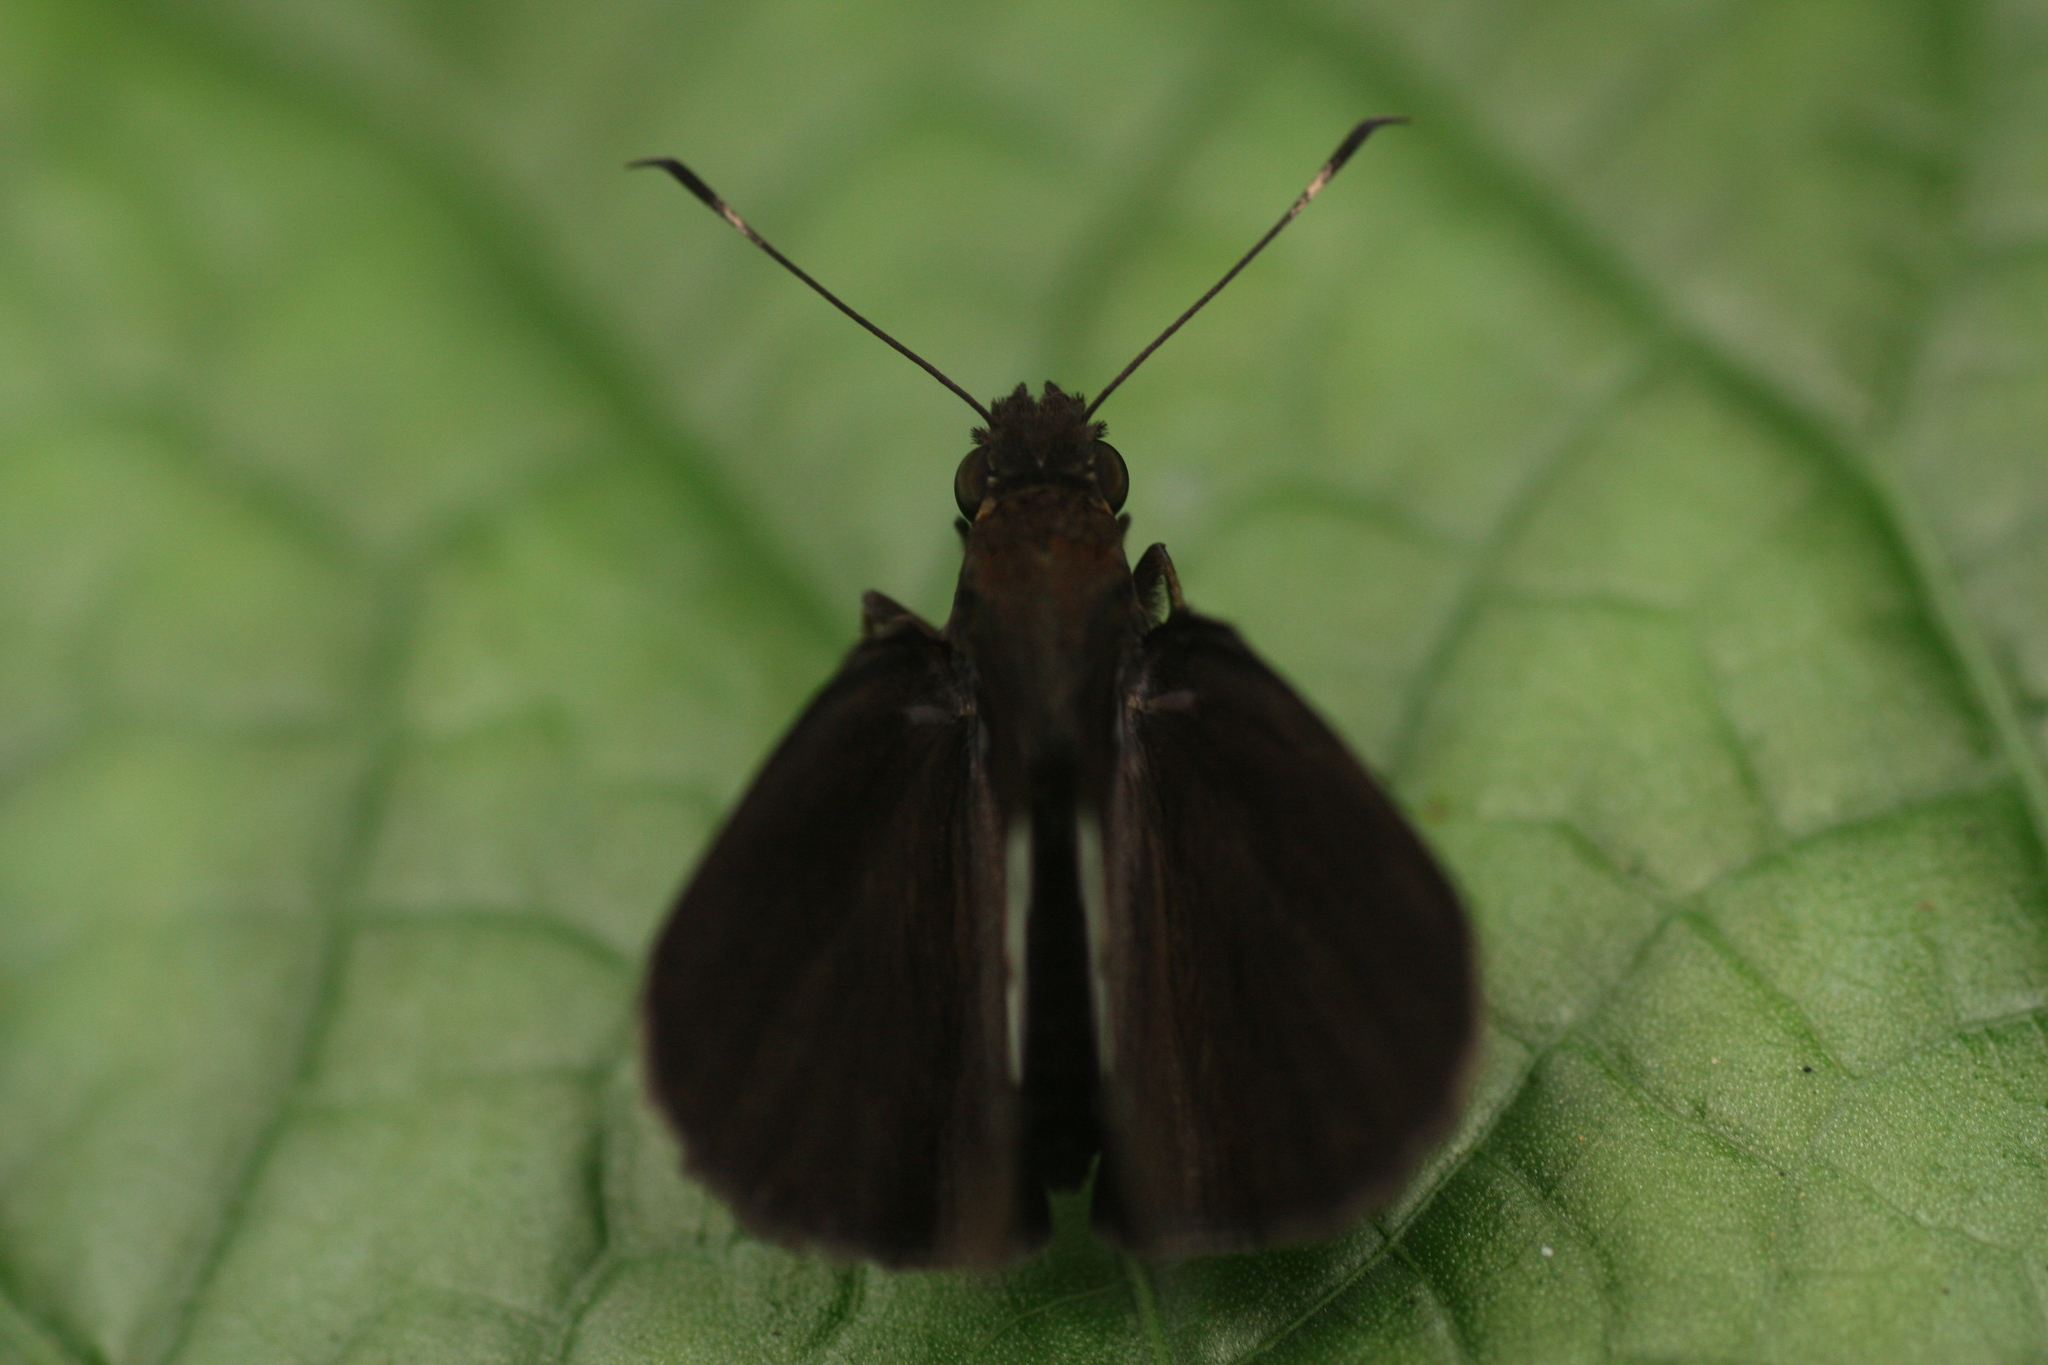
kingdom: Animalia
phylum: Arthropoda
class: Insecta
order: Lepidoptera
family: Hesperiidae
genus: Notocrypta
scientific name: Notocrypta paralysos
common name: Common banded demon
